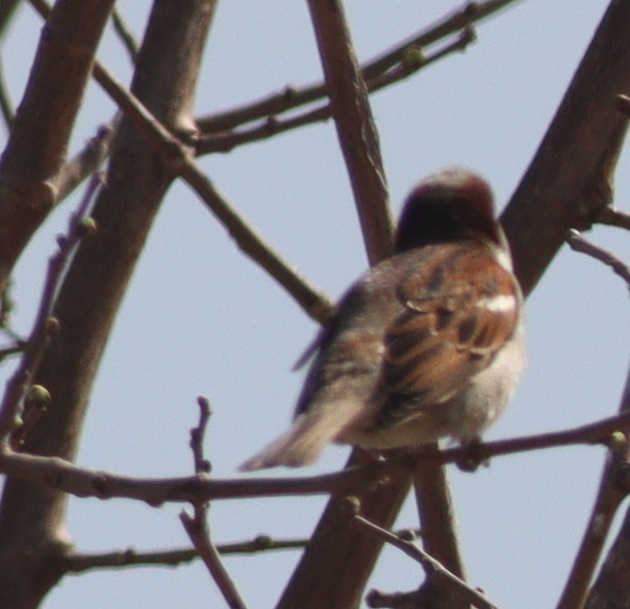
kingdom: Animalia
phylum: Chordata
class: Aves
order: Passeriformes
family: Passeridae
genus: Passer
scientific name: Passer domesticus
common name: House sparrow
